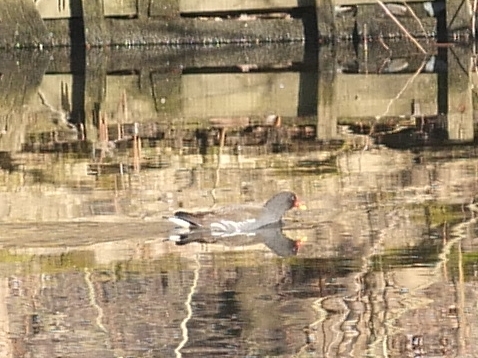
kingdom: Animalia
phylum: Chordata
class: Aves
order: Gruiformes
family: Rallidae
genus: Gallinula
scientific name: Gallinula chloropus
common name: Common moorhen
